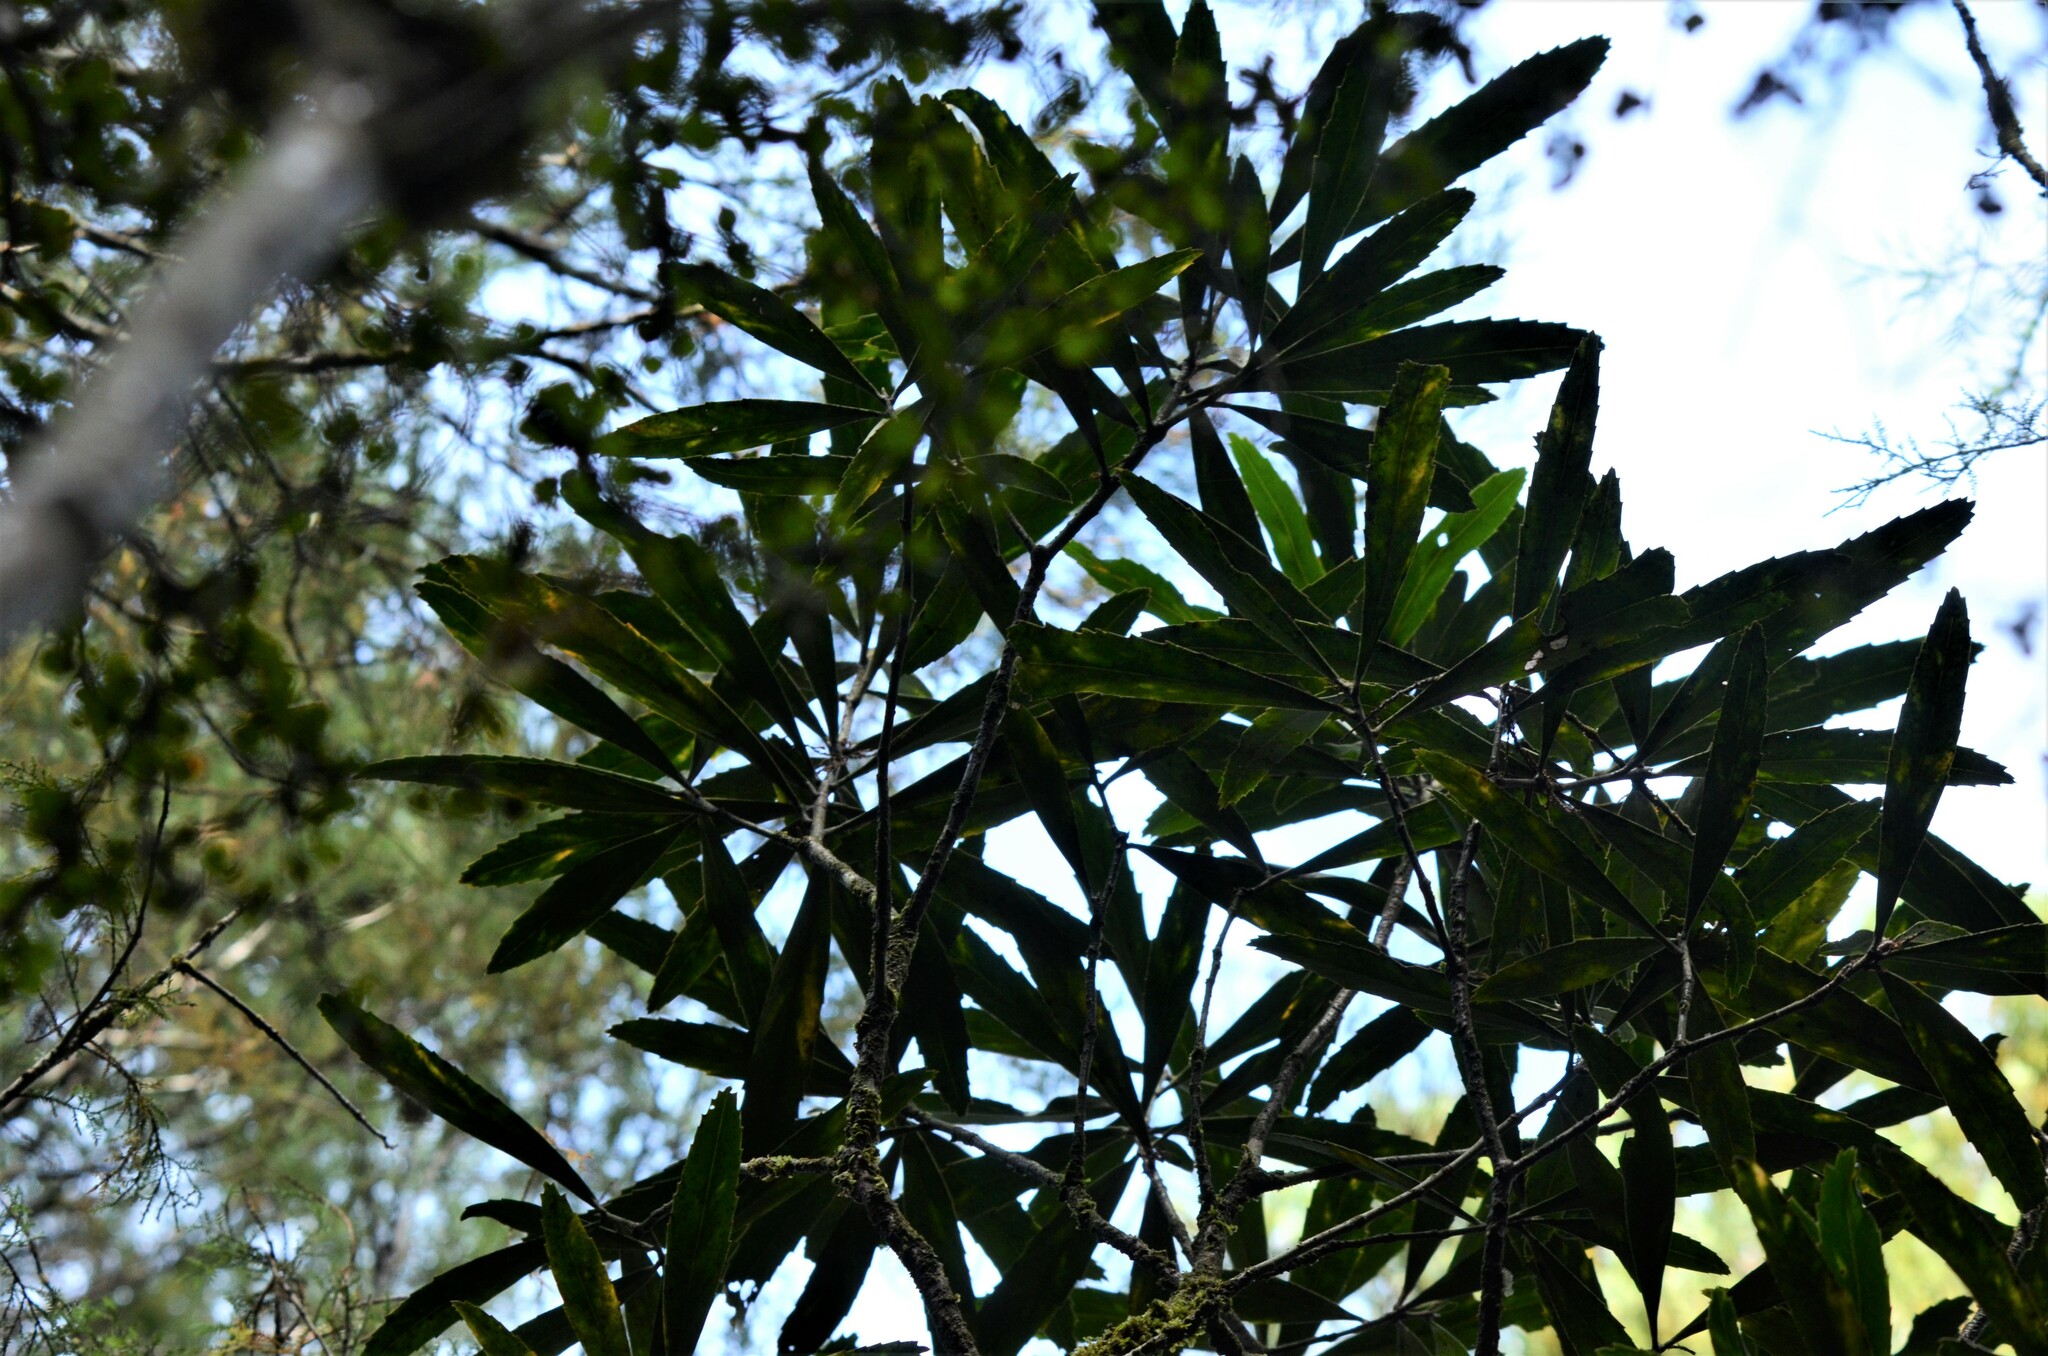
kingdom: Plantae
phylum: Tracheophyta
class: Magnoliopsida
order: Apiales
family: Araliaceae
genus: Pseudopanax
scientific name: Pseudopanax crassifolius
